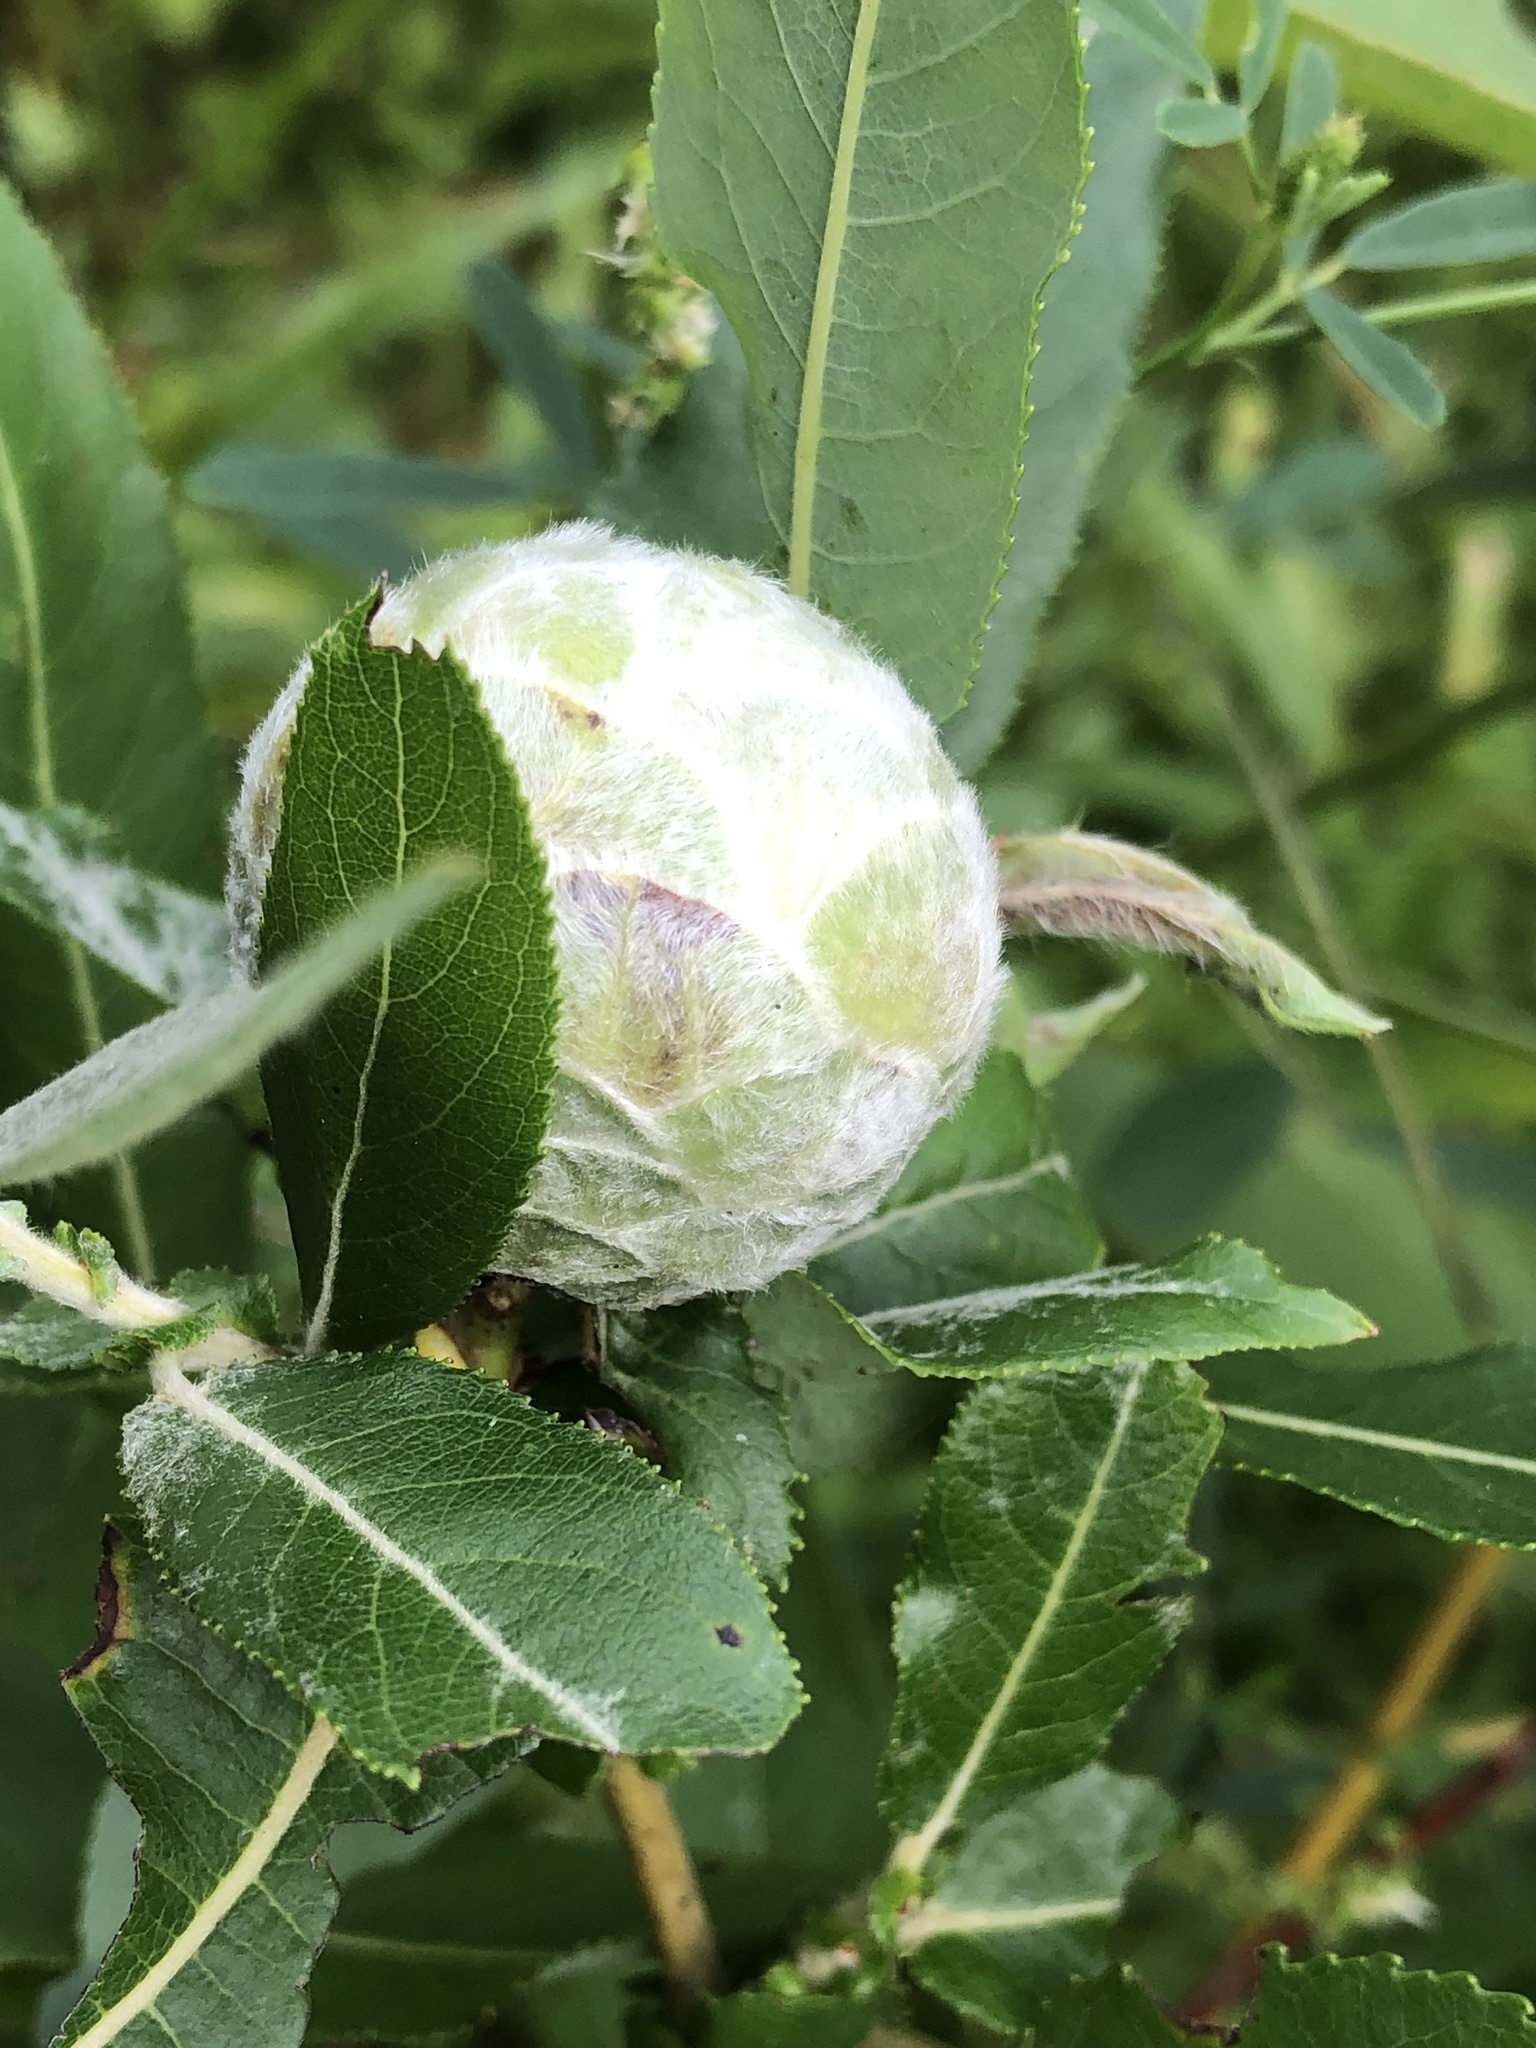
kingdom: Animalia
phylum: Arthropoda
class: Insecta
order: Diptera
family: Cecidomyiidae
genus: Rabdophaga
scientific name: Rabdophaga strobiloides
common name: Willow pinecone gall midge
